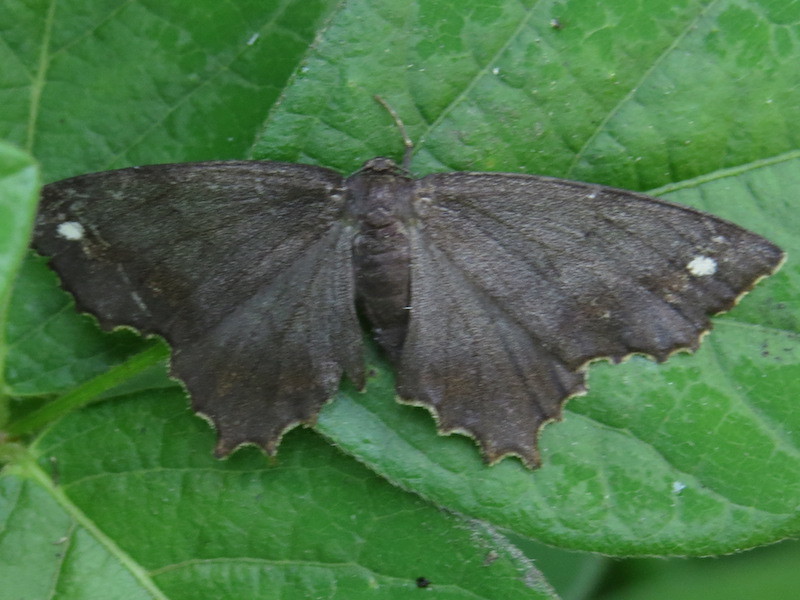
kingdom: Animalia
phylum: Arthropoda
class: Insecta
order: Lepidoptera
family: Geometridae
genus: Hypagyrtis
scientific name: Hypagyrtis unipunctata
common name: One-spotted variant
